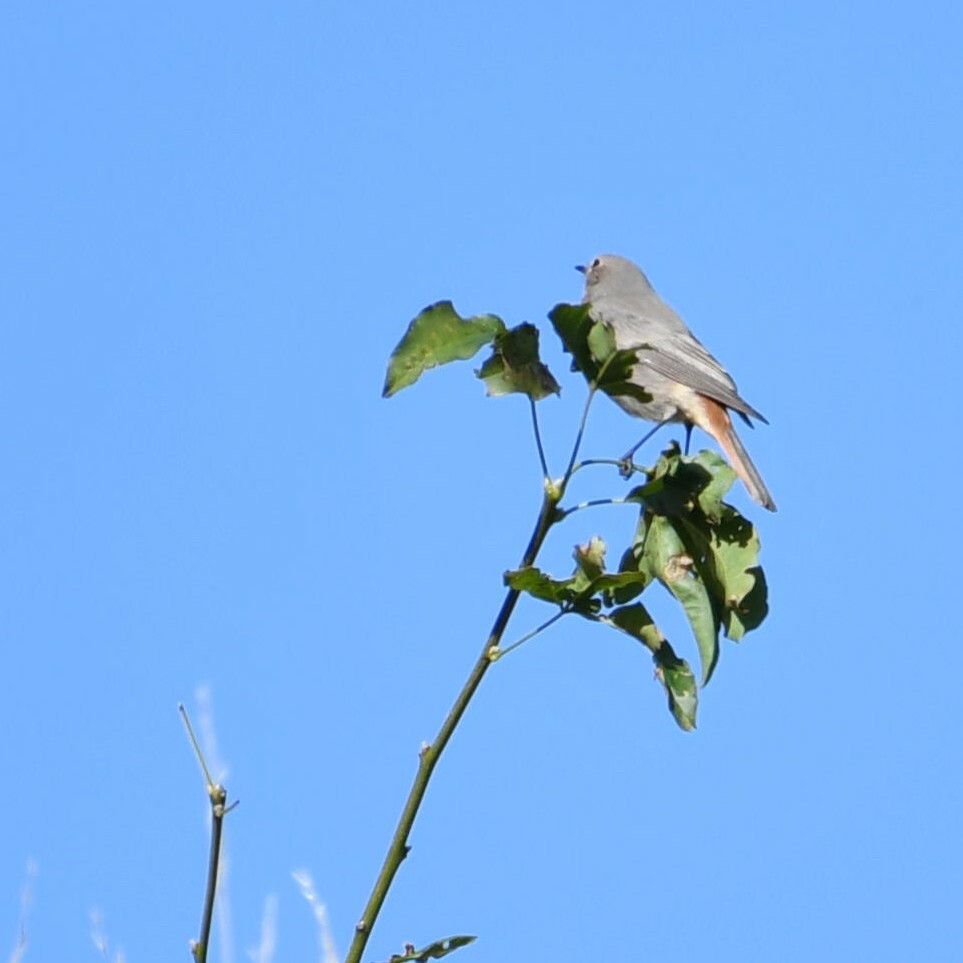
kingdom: Animalia
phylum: Chordata
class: Aves
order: Passeriformes
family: Muscicapidae
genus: Phoenicurus
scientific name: Phoenicurus ochruros
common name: Black redstart
